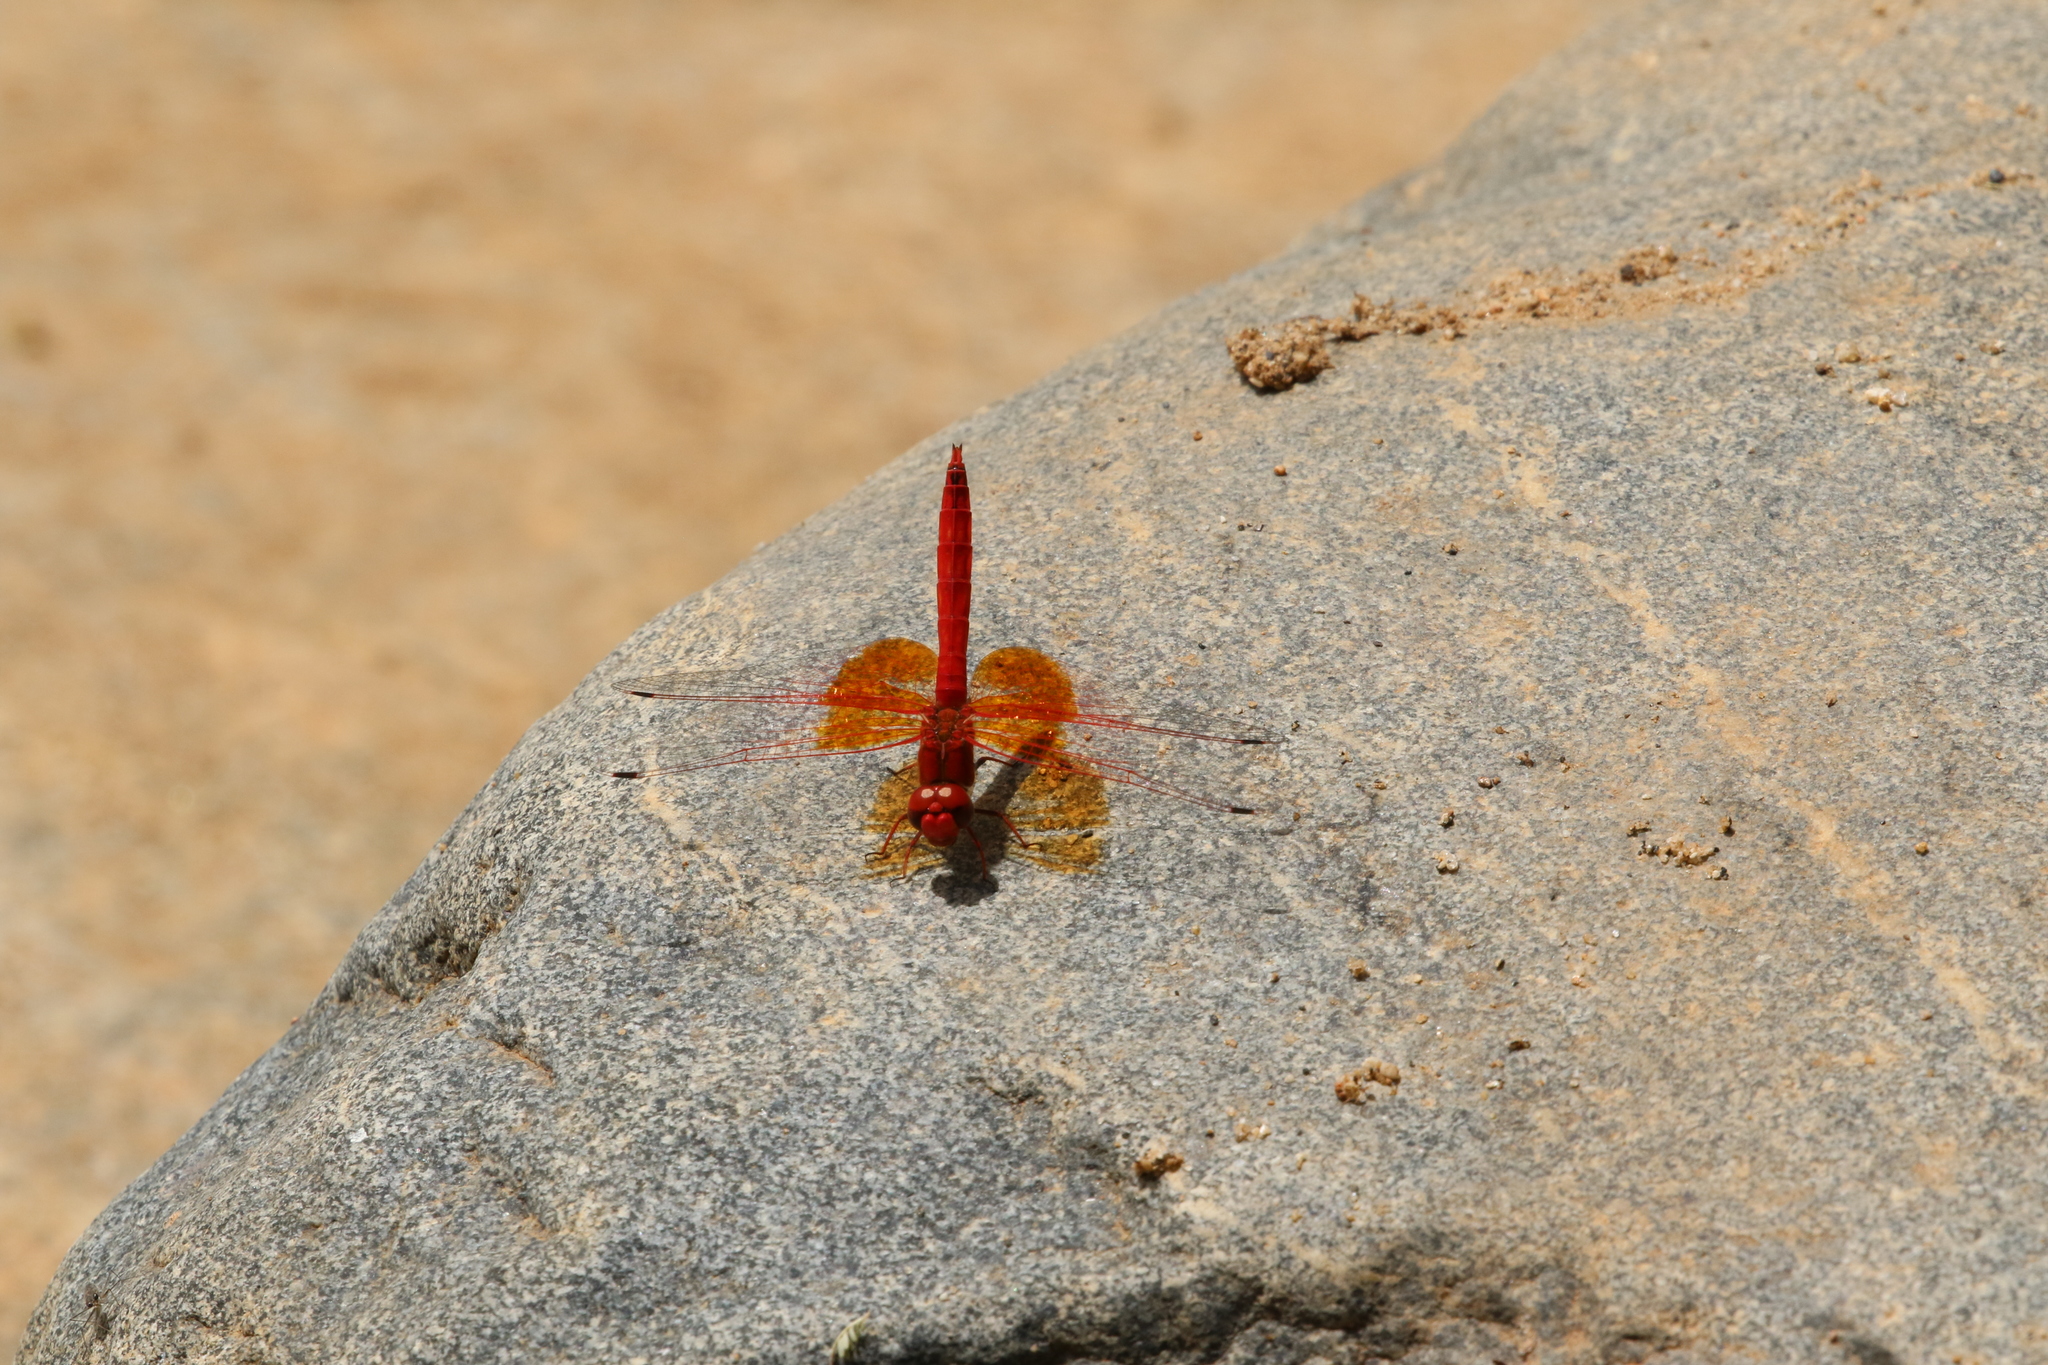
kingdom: Animalia
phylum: Arthropoda
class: Insecta
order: Odonata
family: Libellulidae
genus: Trithemis
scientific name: Trithemis kirbyi
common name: Kirby's dropwing
